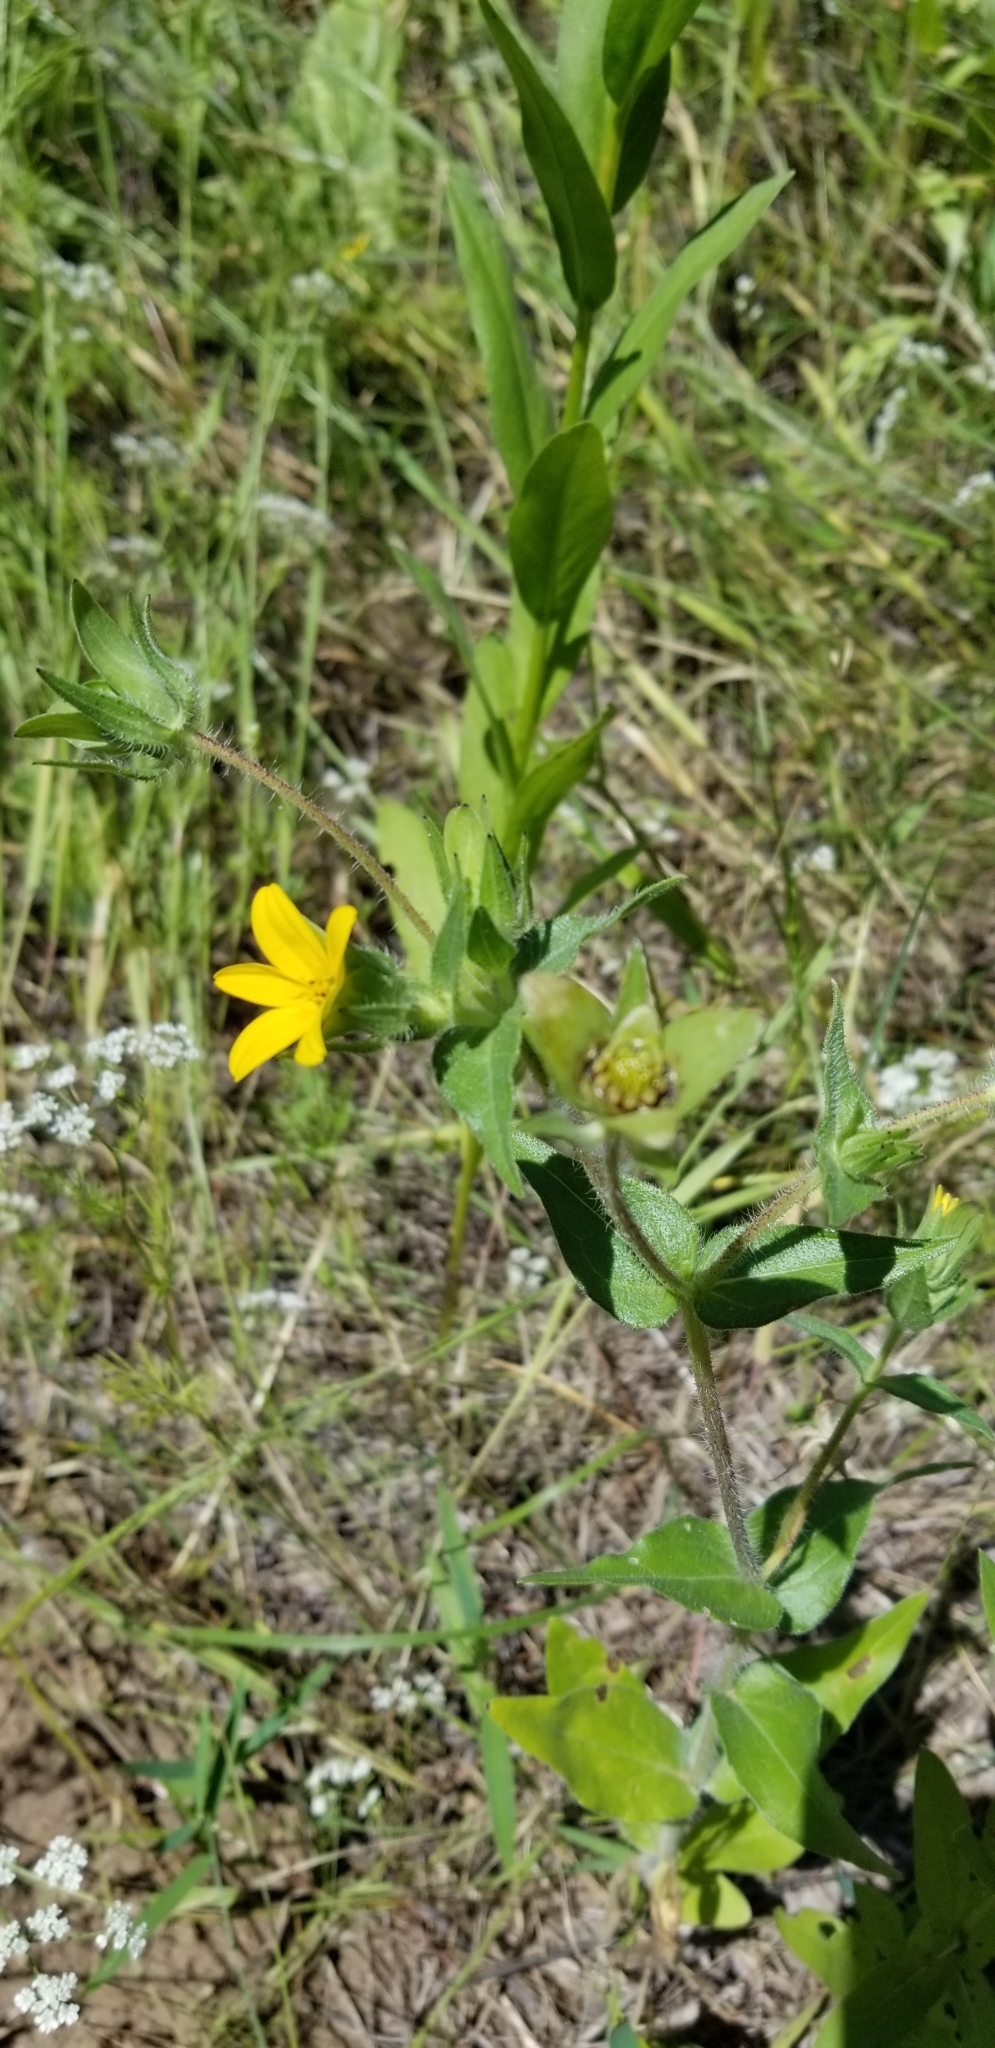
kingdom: Plantae
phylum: Tracheophyta
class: Magnoliopsida
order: Asterales
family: Asteraceae
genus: Lindheimera
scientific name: Lindheimera texana
